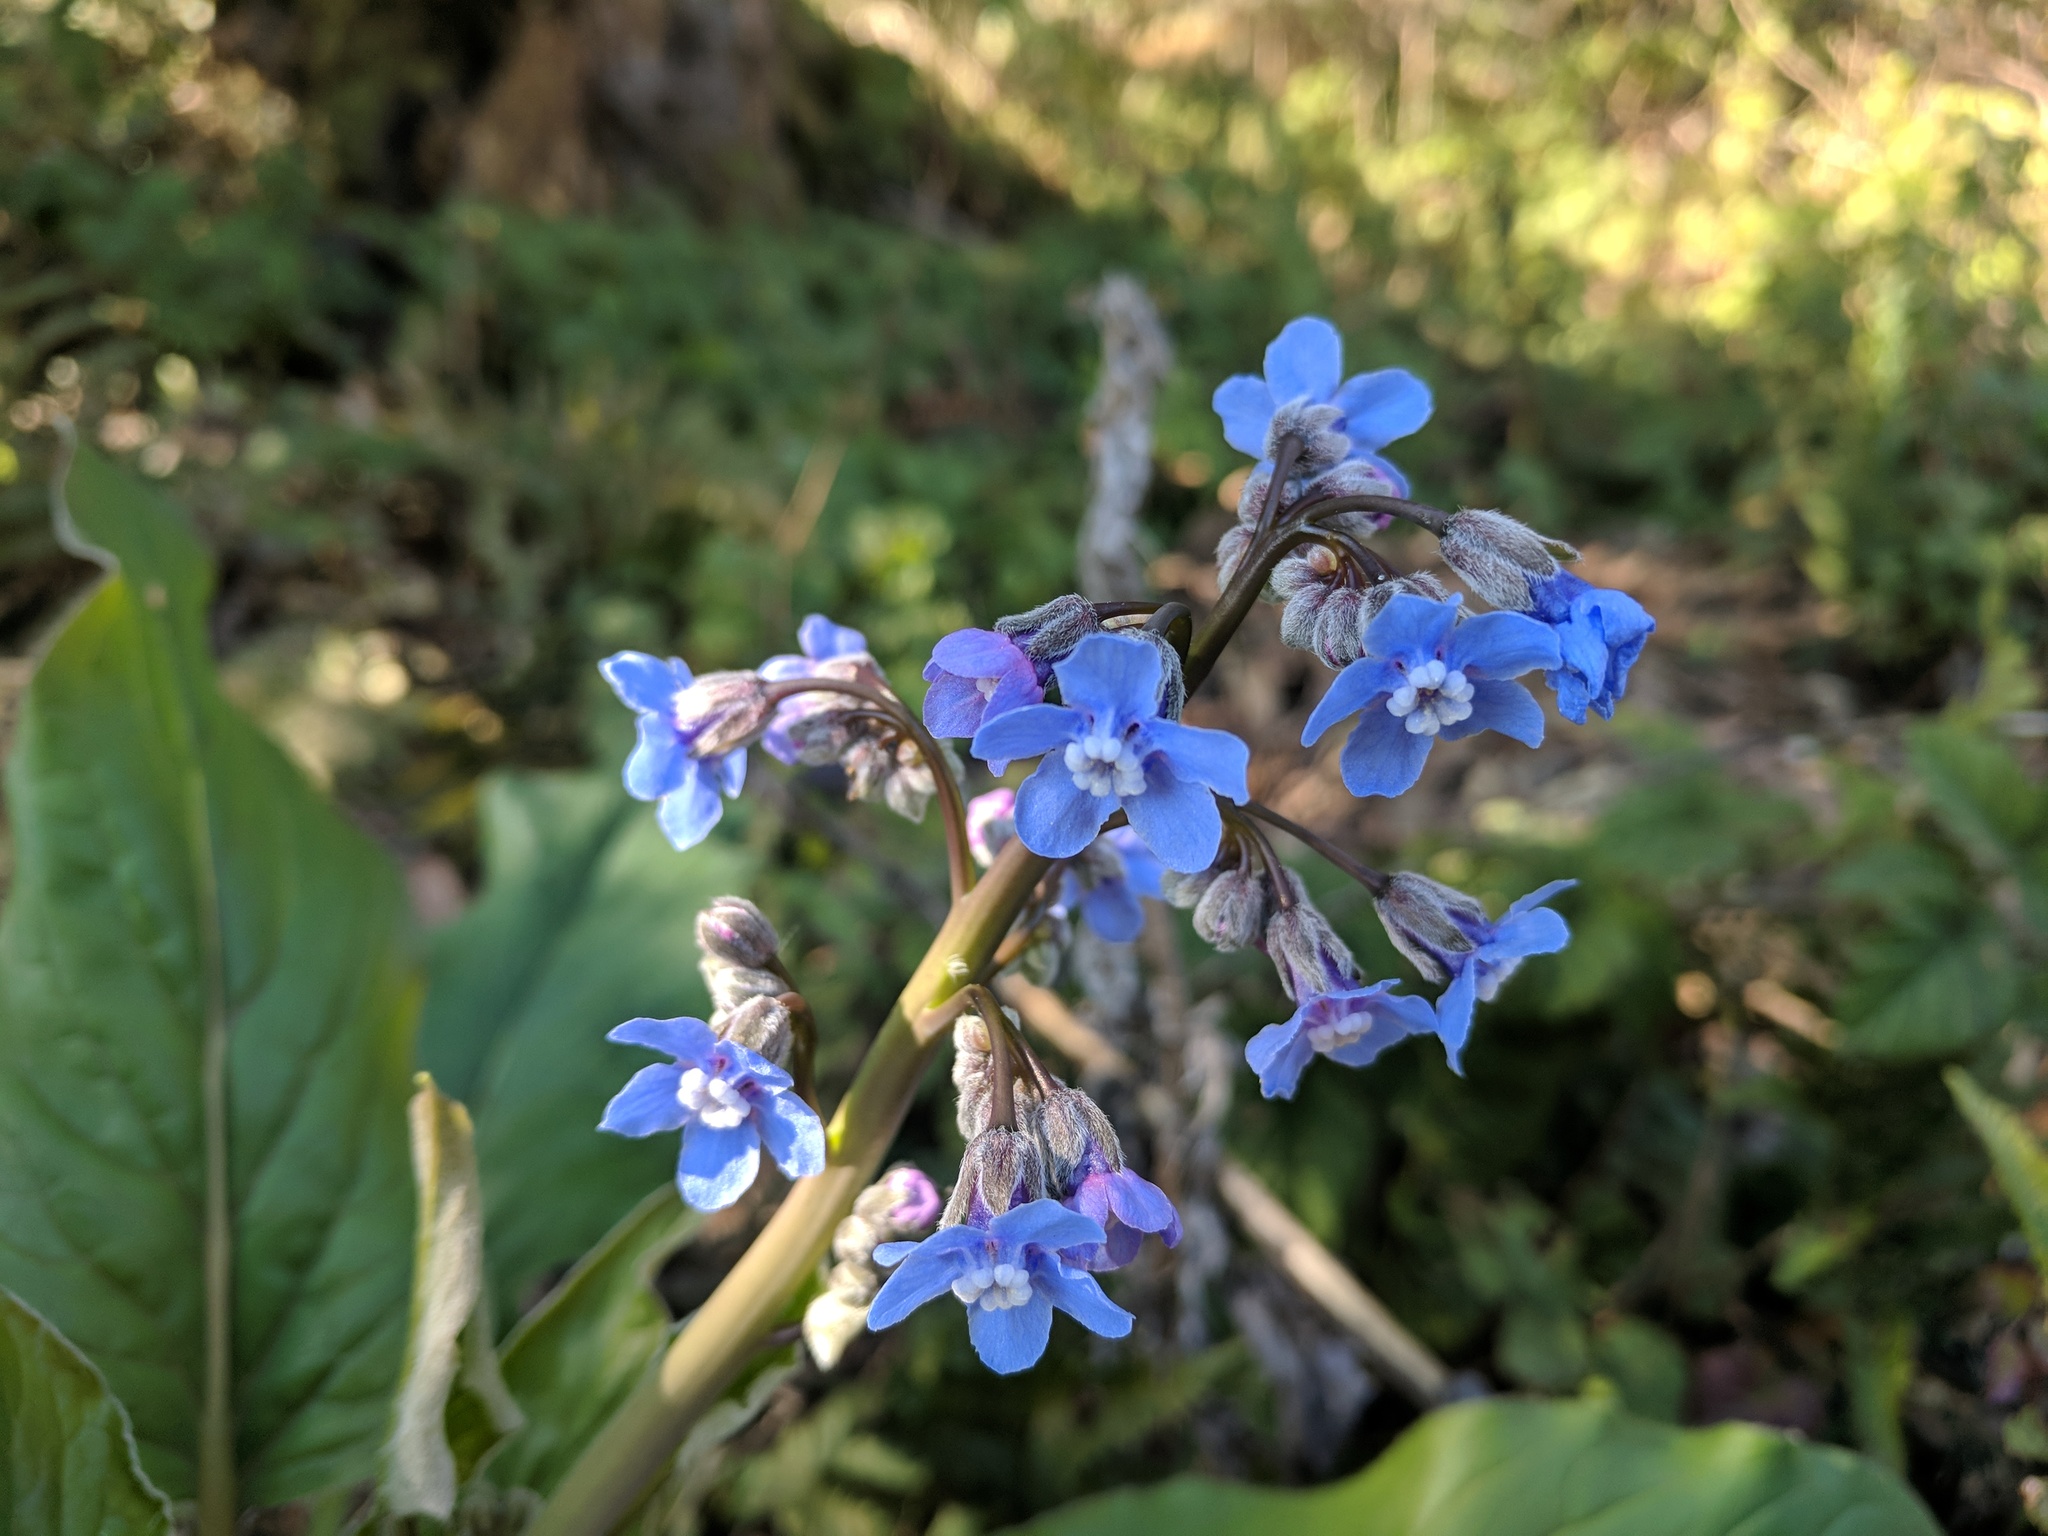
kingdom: Plantae
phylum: Tracheophyta
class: Magnoliopsida
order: Boraginales
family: Boraginaceae
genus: Adelinia
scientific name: Adelinia grande
